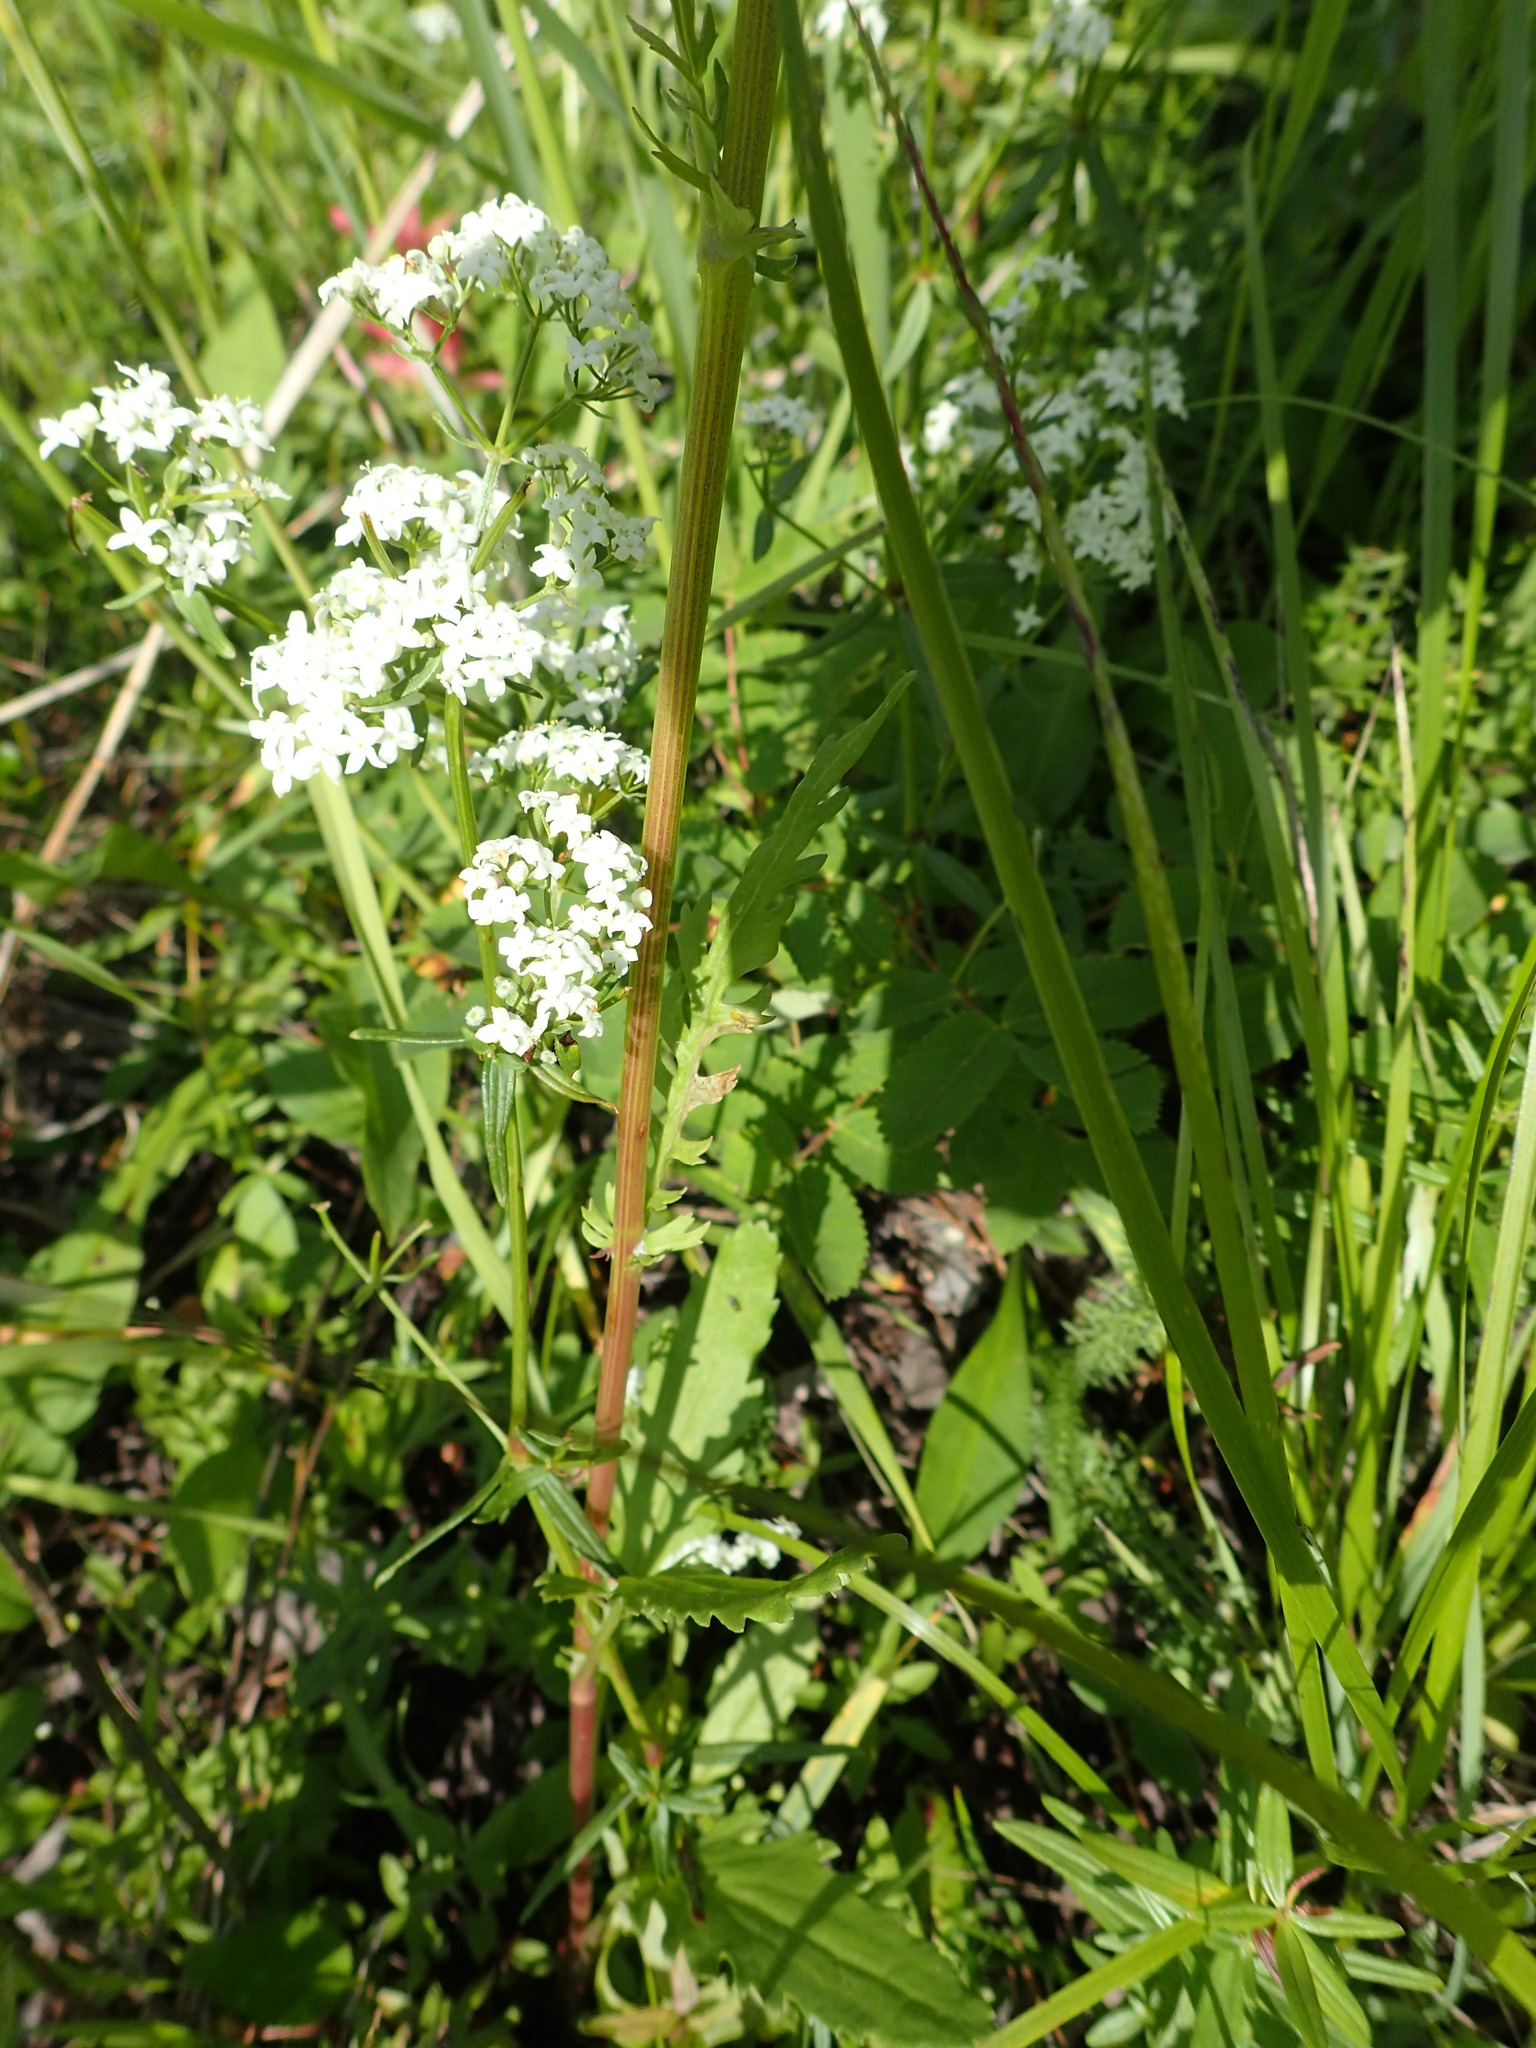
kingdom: Plantae
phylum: Tracheophyta
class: Magnoliopsida
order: Gentianales
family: Rubiaceae
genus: Galium
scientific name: Galium boreale
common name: Northern bedstraw
